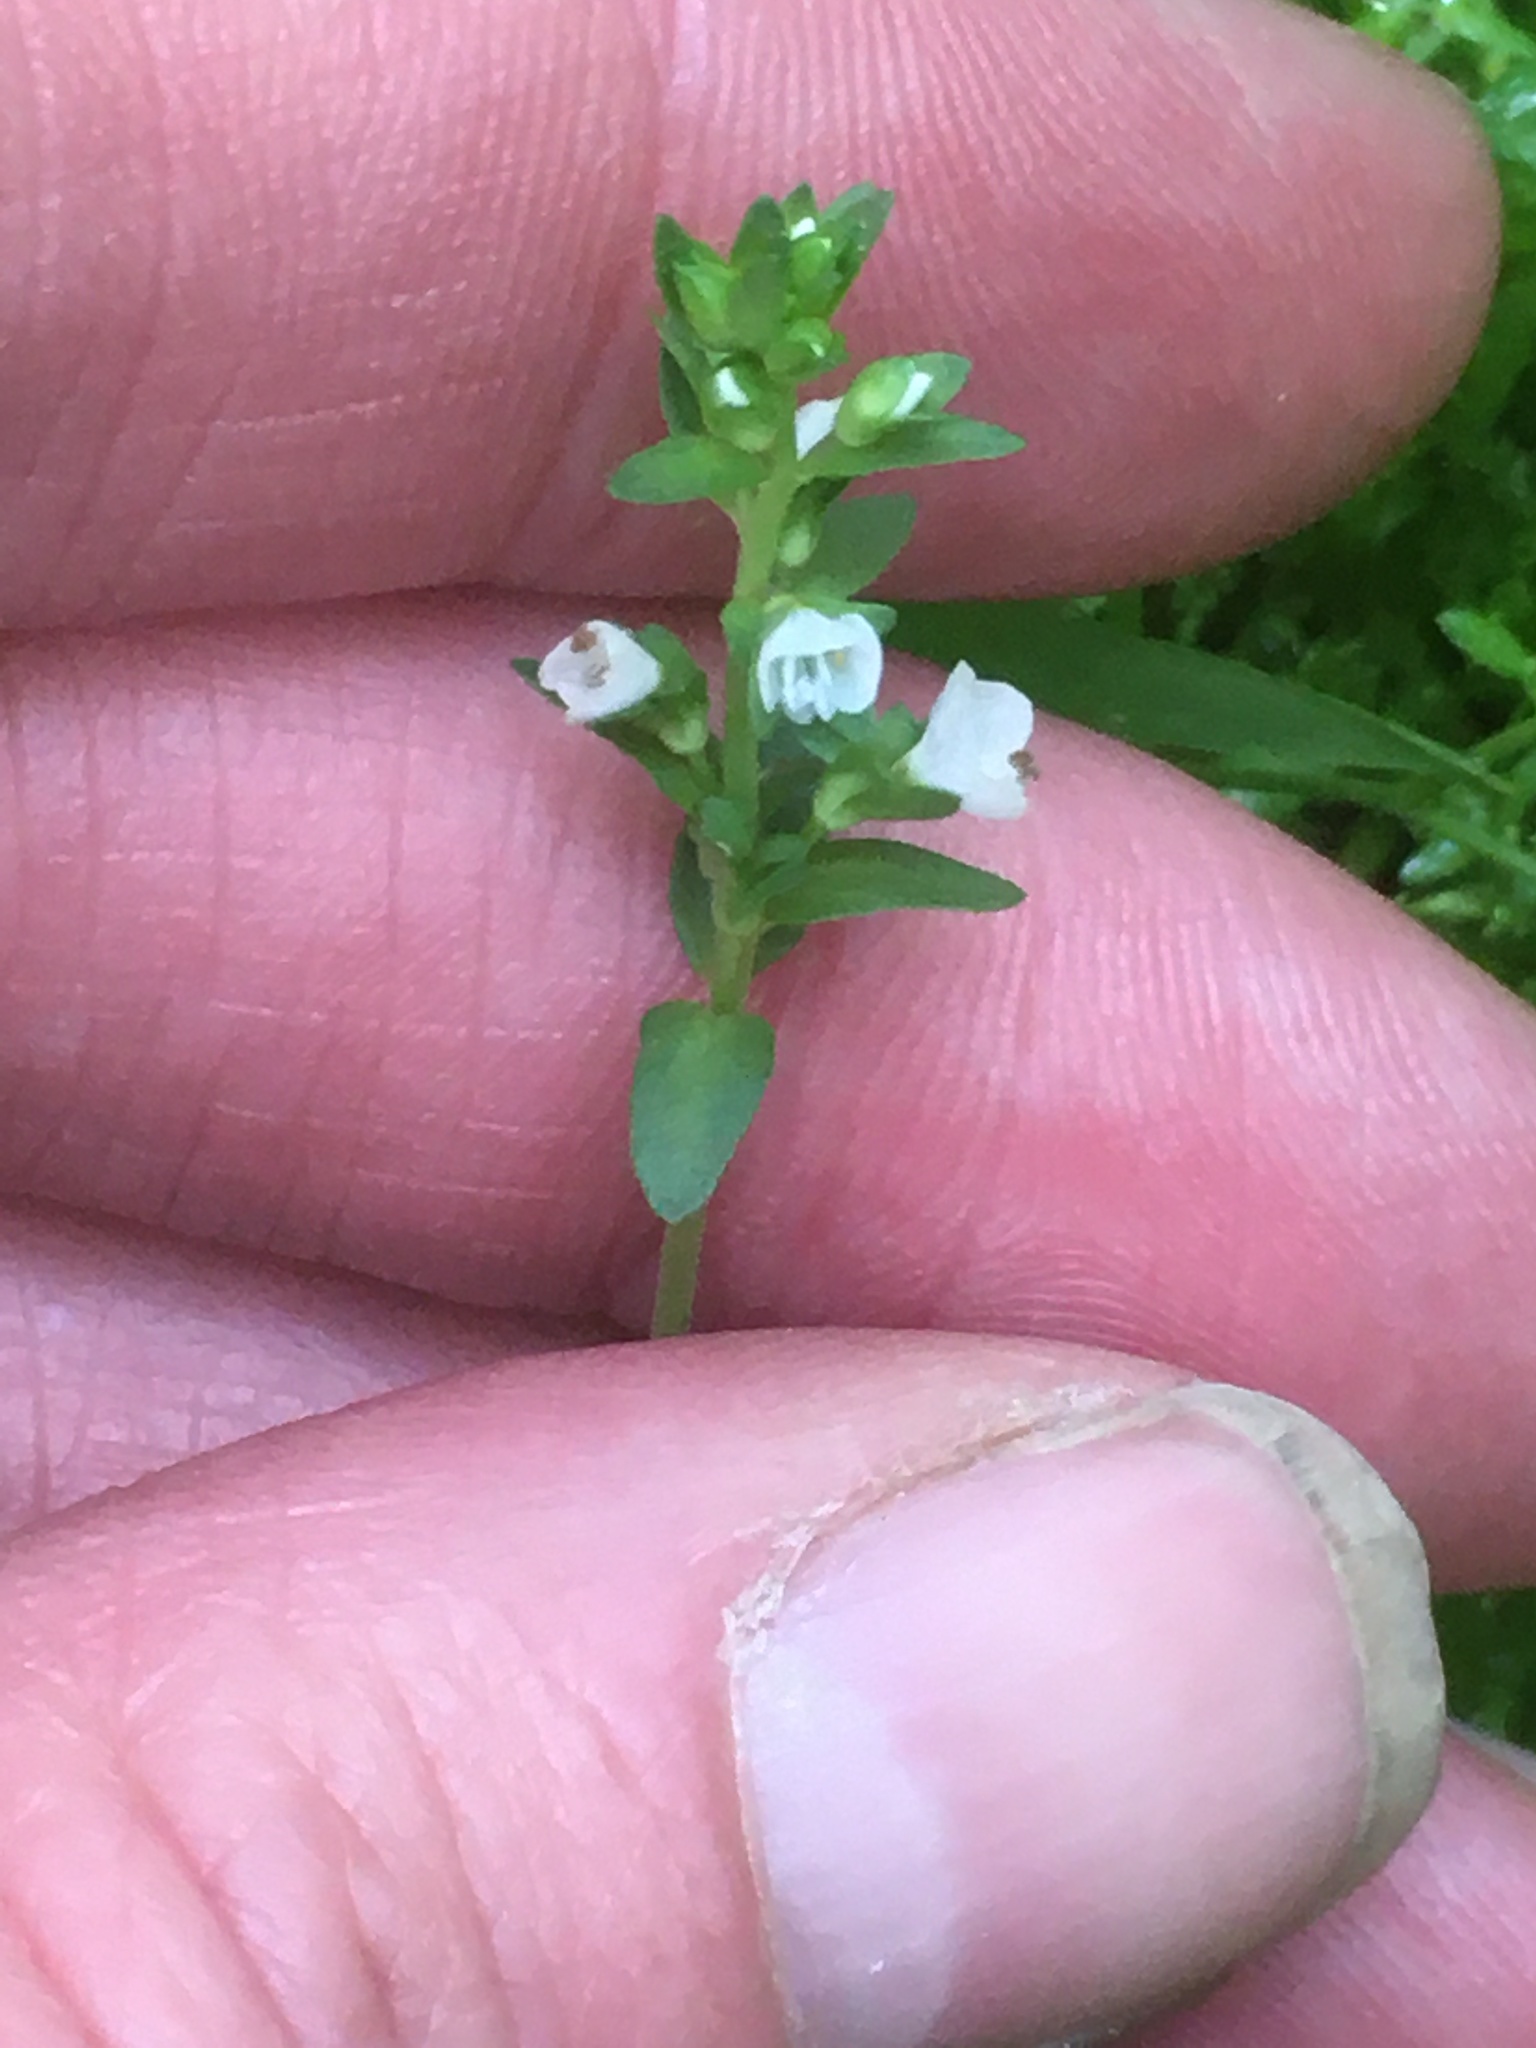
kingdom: Plantae
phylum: Tracheophyta
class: Magnoliopsida
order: Lamiales
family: Plantaginaceae
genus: Veronica
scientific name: Veronica serpyllifolia
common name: Thyme-leaved speedwell
